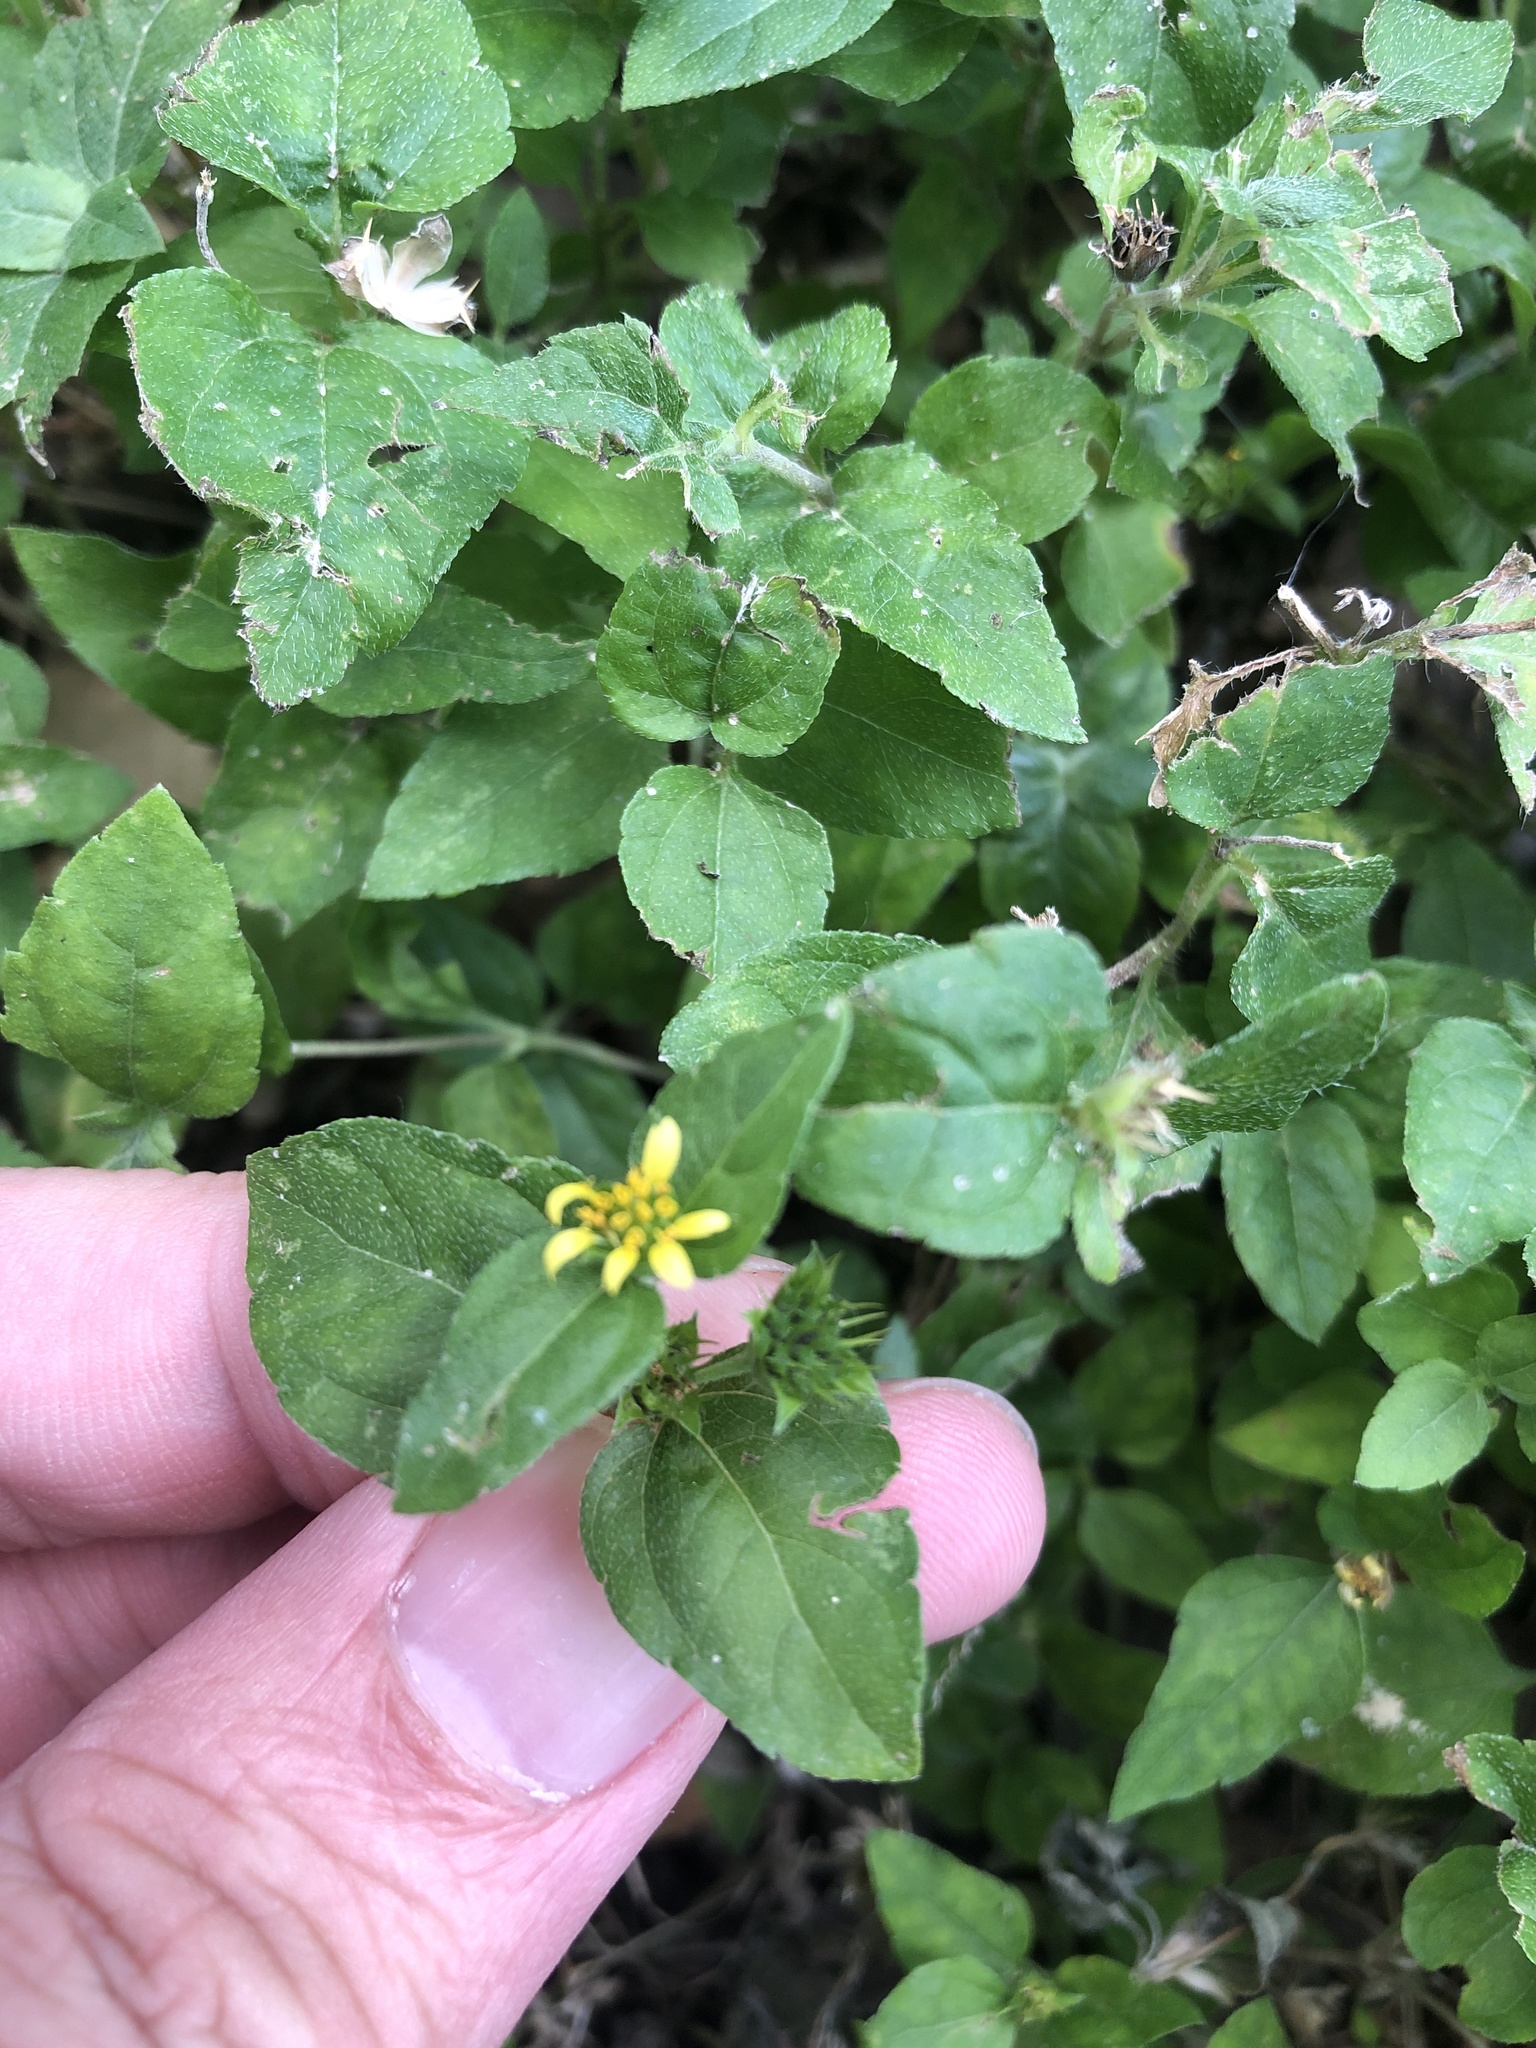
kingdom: Plantae
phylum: Tracheophyta
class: Magnoliopsida
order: Asterales
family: Asteraceae
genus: Calyptocarpus
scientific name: Calyptocarpus vialis
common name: Straggler daisy
